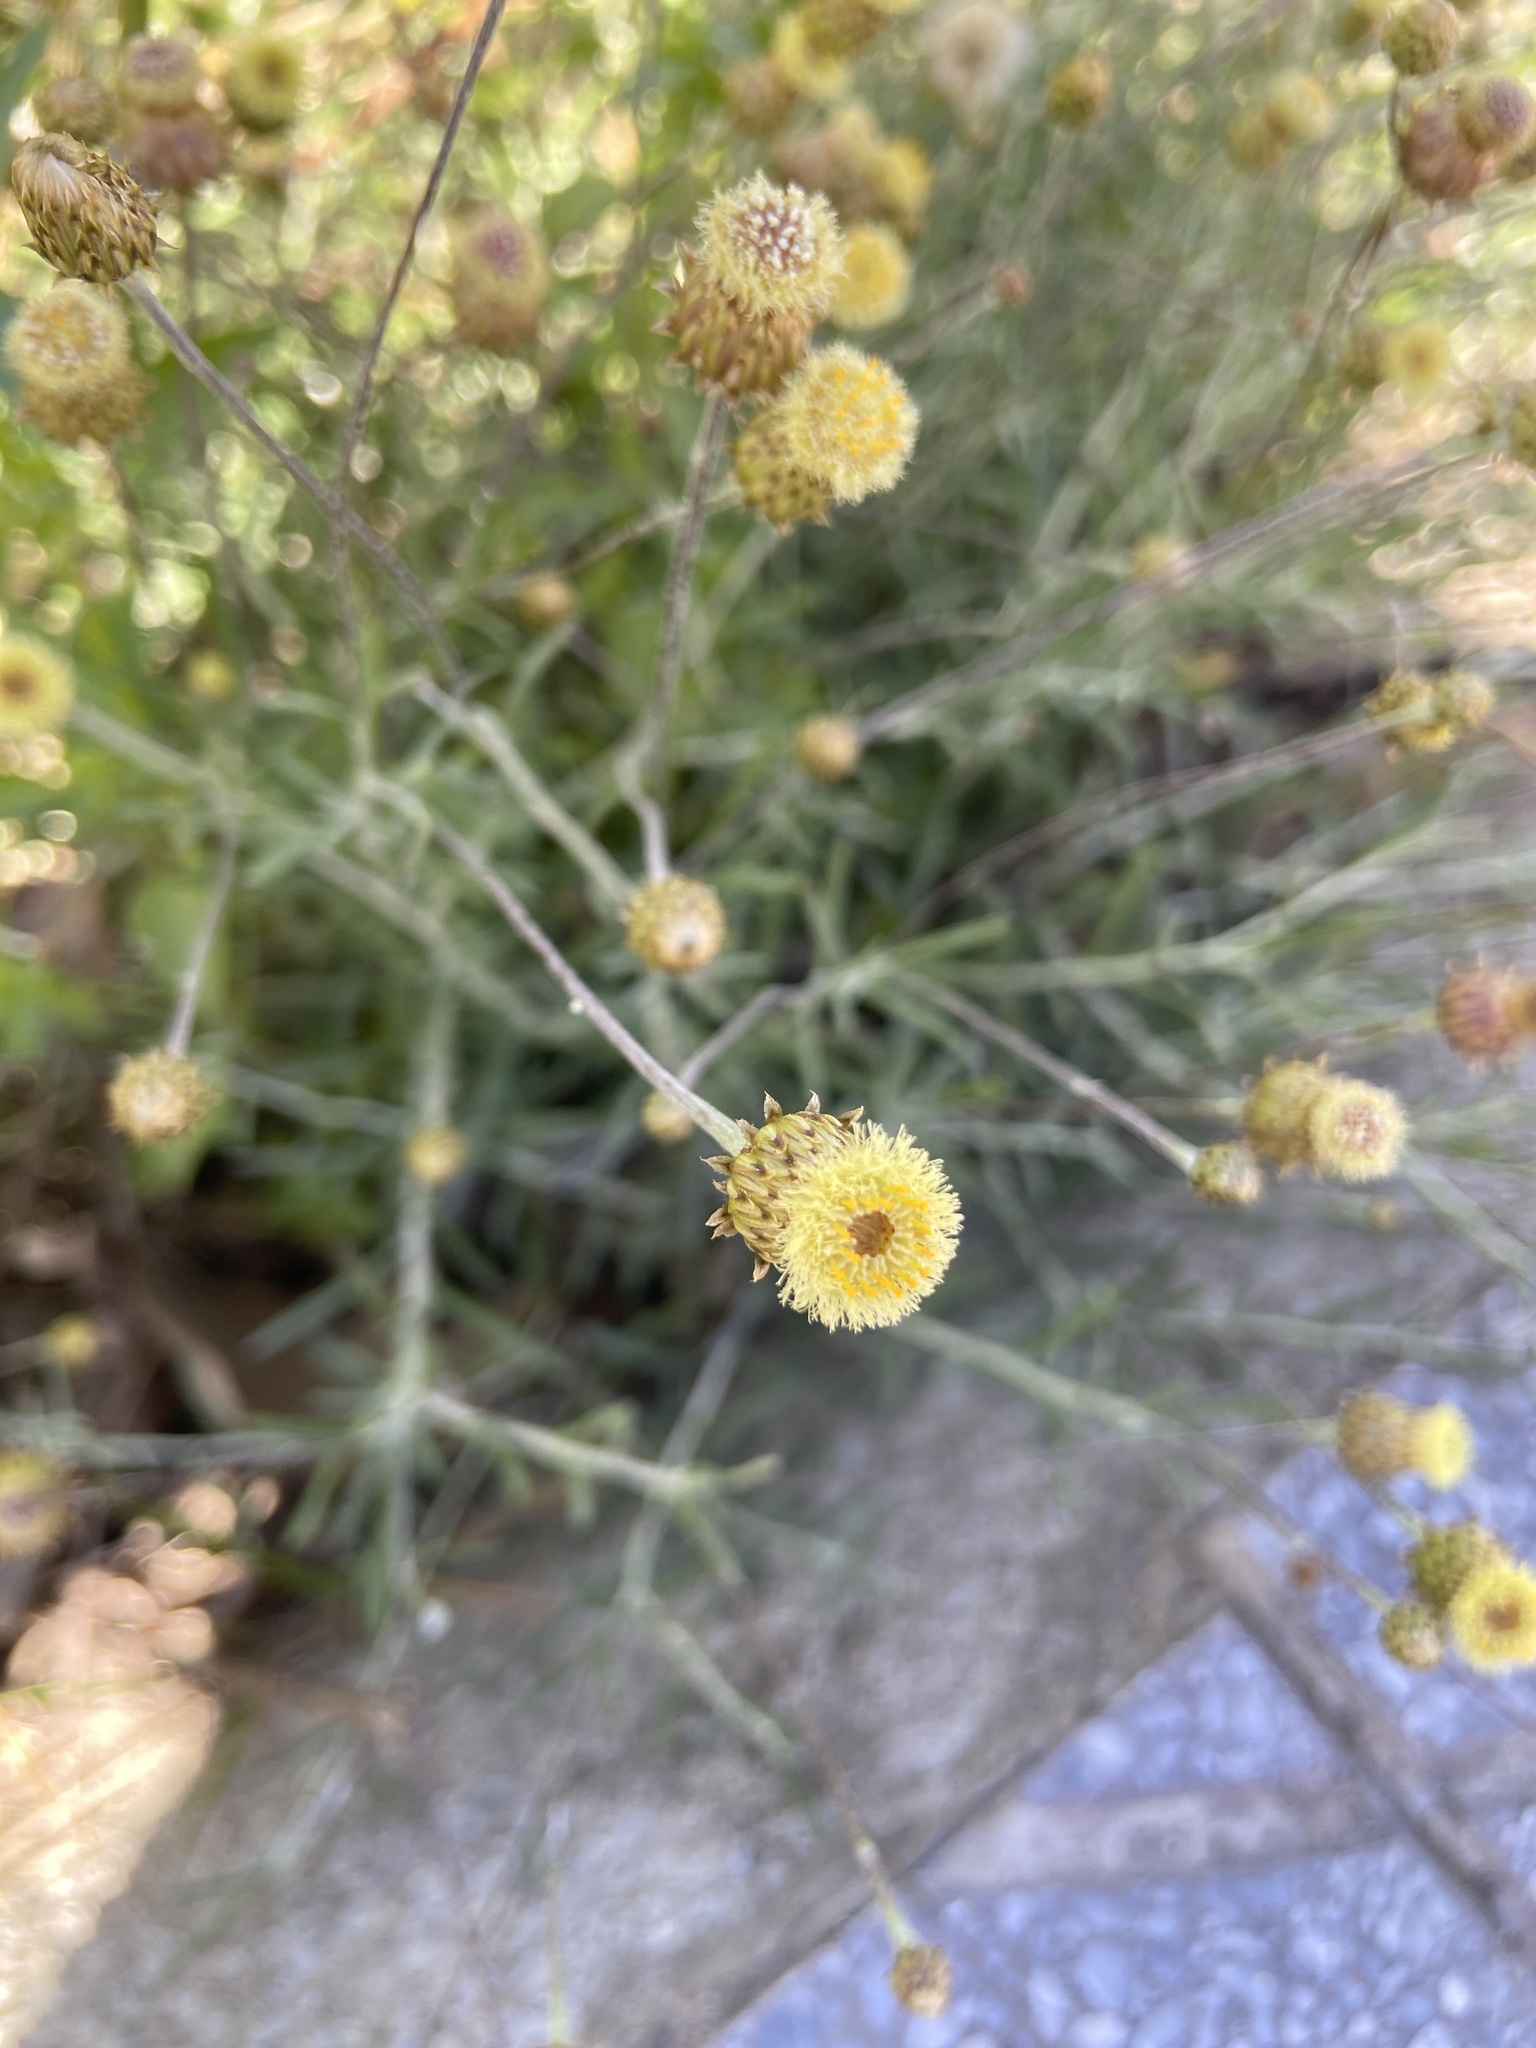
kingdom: Plantae
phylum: Tracheophyta
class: Magnoliopsida
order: Asterales
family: Asteraceae
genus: Phagnalon
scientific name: Phagnalon saxatile
